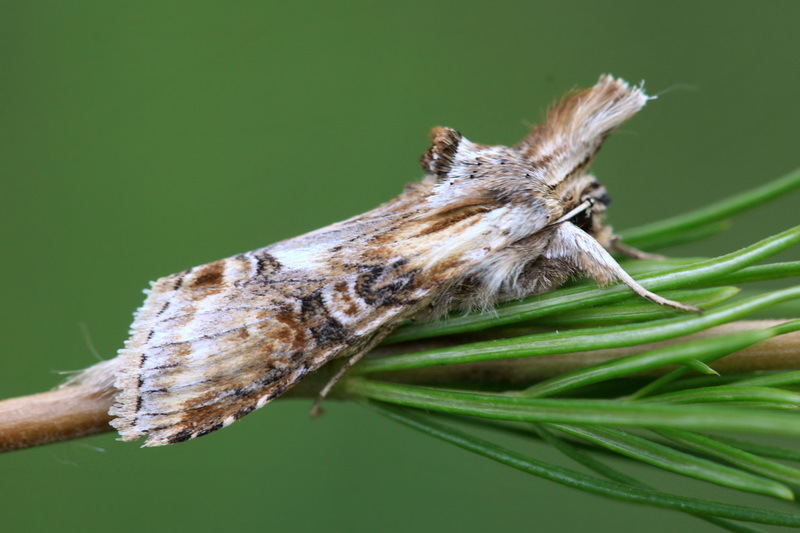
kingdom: Animalia
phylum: Arthropoda
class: Insecta
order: Lepidoptera
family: Noctuidae
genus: Cucullia
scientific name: Cucullia propinqua
